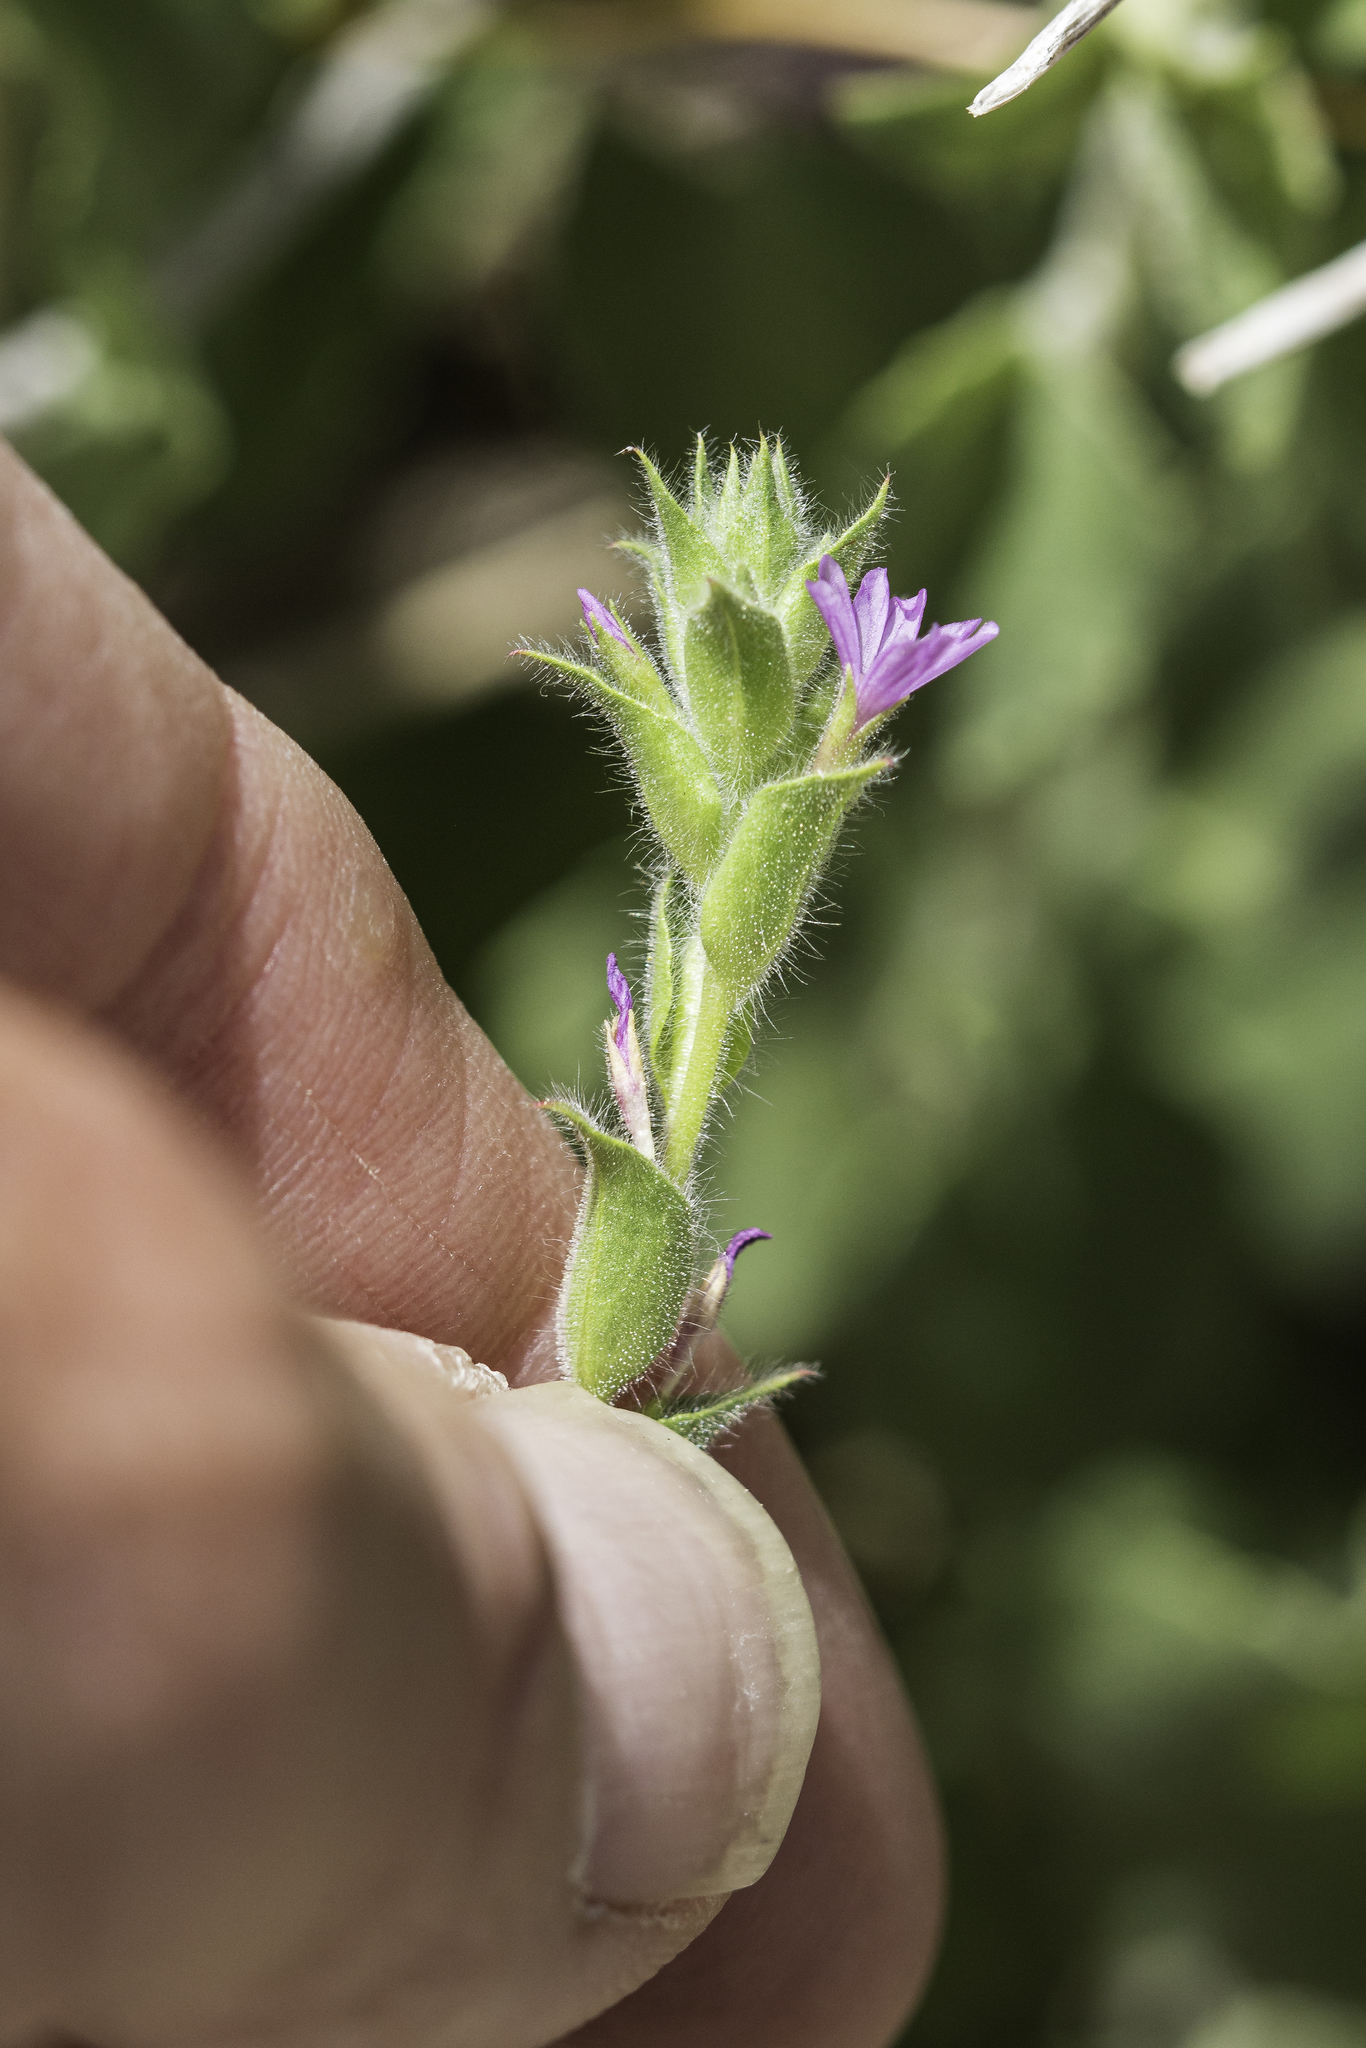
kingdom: Plantae
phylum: Tracheophyta
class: Magnoliopsida
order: Myrtales
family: Onagraceae
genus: Epilobium
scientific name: Epilobium densiflorum
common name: Dense spike-primrose
